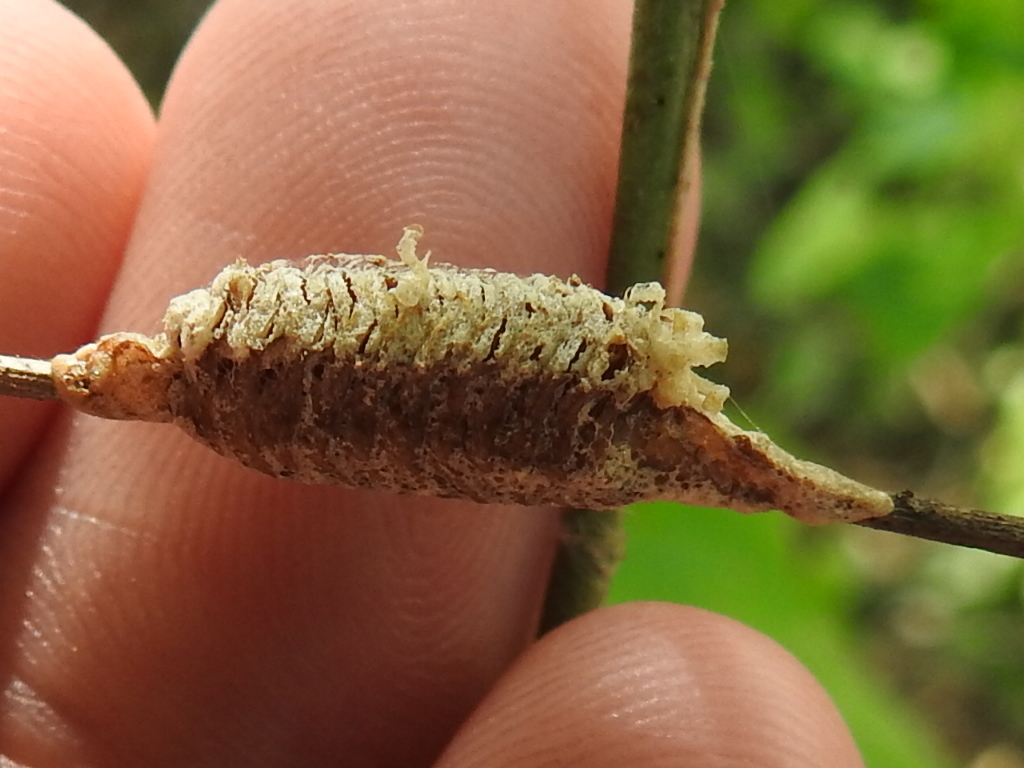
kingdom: Animalia
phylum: Arthropoda
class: Insecta
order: Mantodea
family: Mantidae
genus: Stagmomantis
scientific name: Stagmomantis carolina
